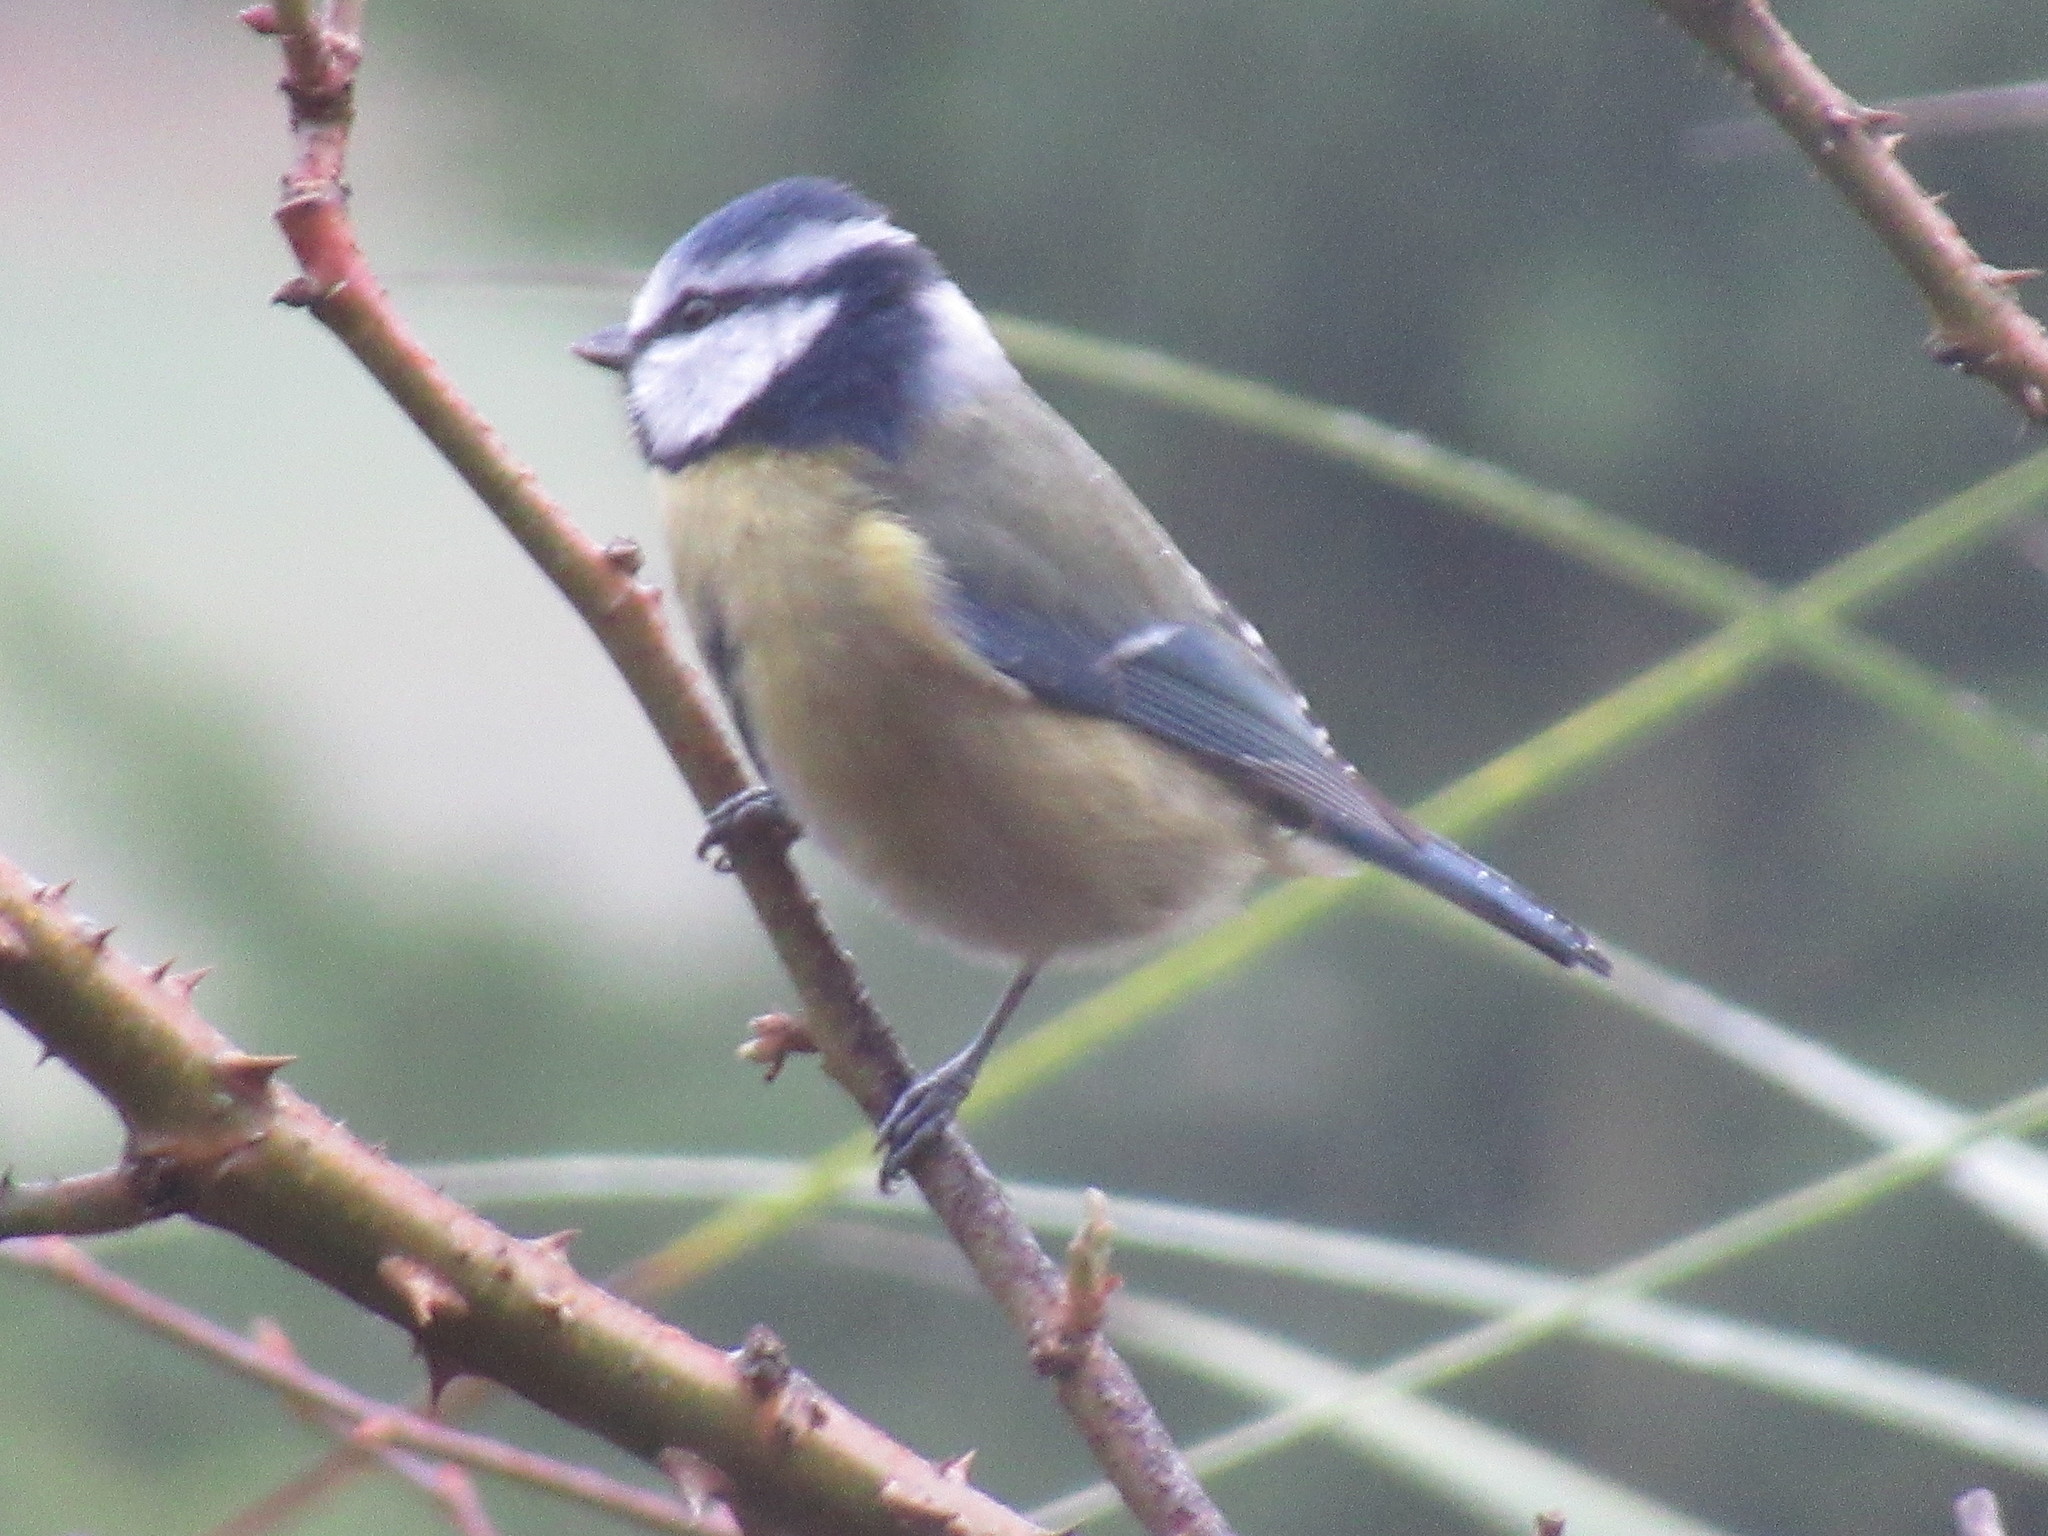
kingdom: Animalia
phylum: Chordata
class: Aves
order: Passeriformes
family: Paridae
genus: Cyanistes
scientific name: Cyanistes caeruleus
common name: Eurasian blue tit
